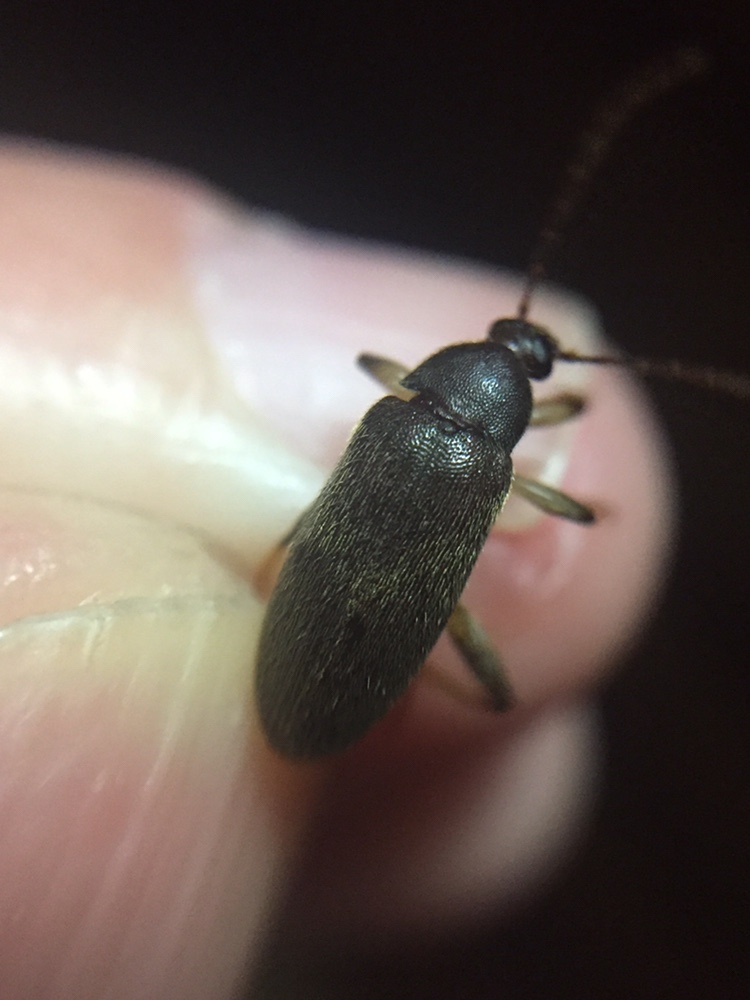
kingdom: Animalia
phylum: Arthropoda
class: Insecta
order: Coleoptera
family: Tenebrionidae
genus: Homotrysis
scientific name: Homotrysis
